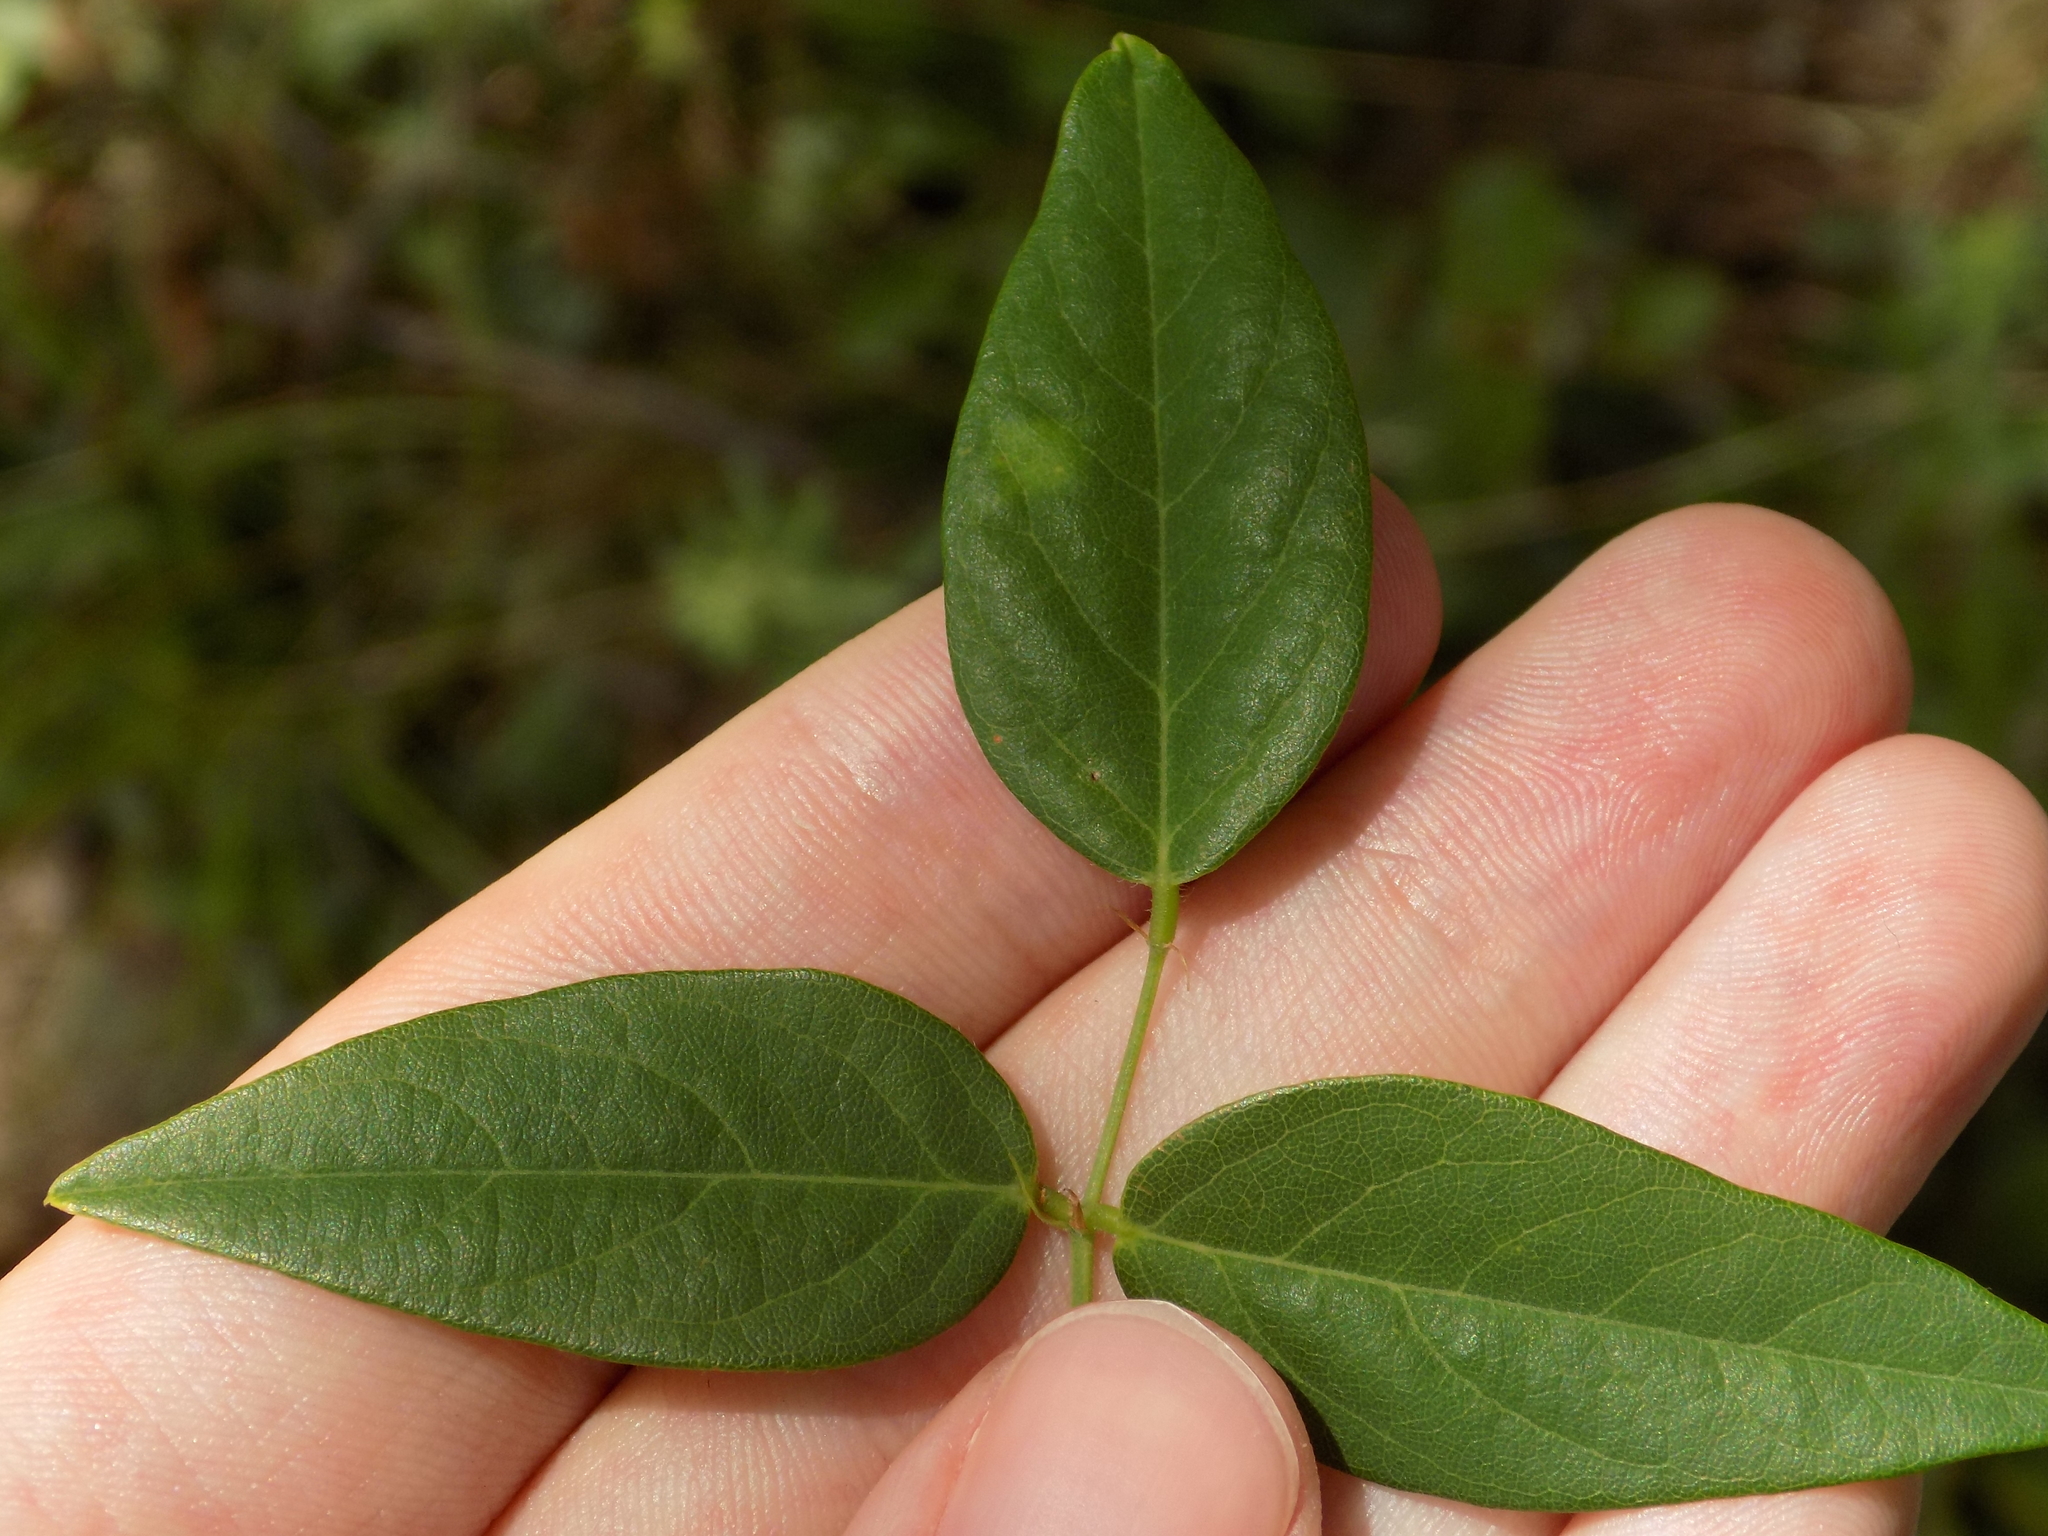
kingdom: Plantae
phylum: Tracheophyta
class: Magnoliopsida
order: Fabales
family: Fabaceae
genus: Clitoria
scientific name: Clitoria mariana
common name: Butterfly-pea
